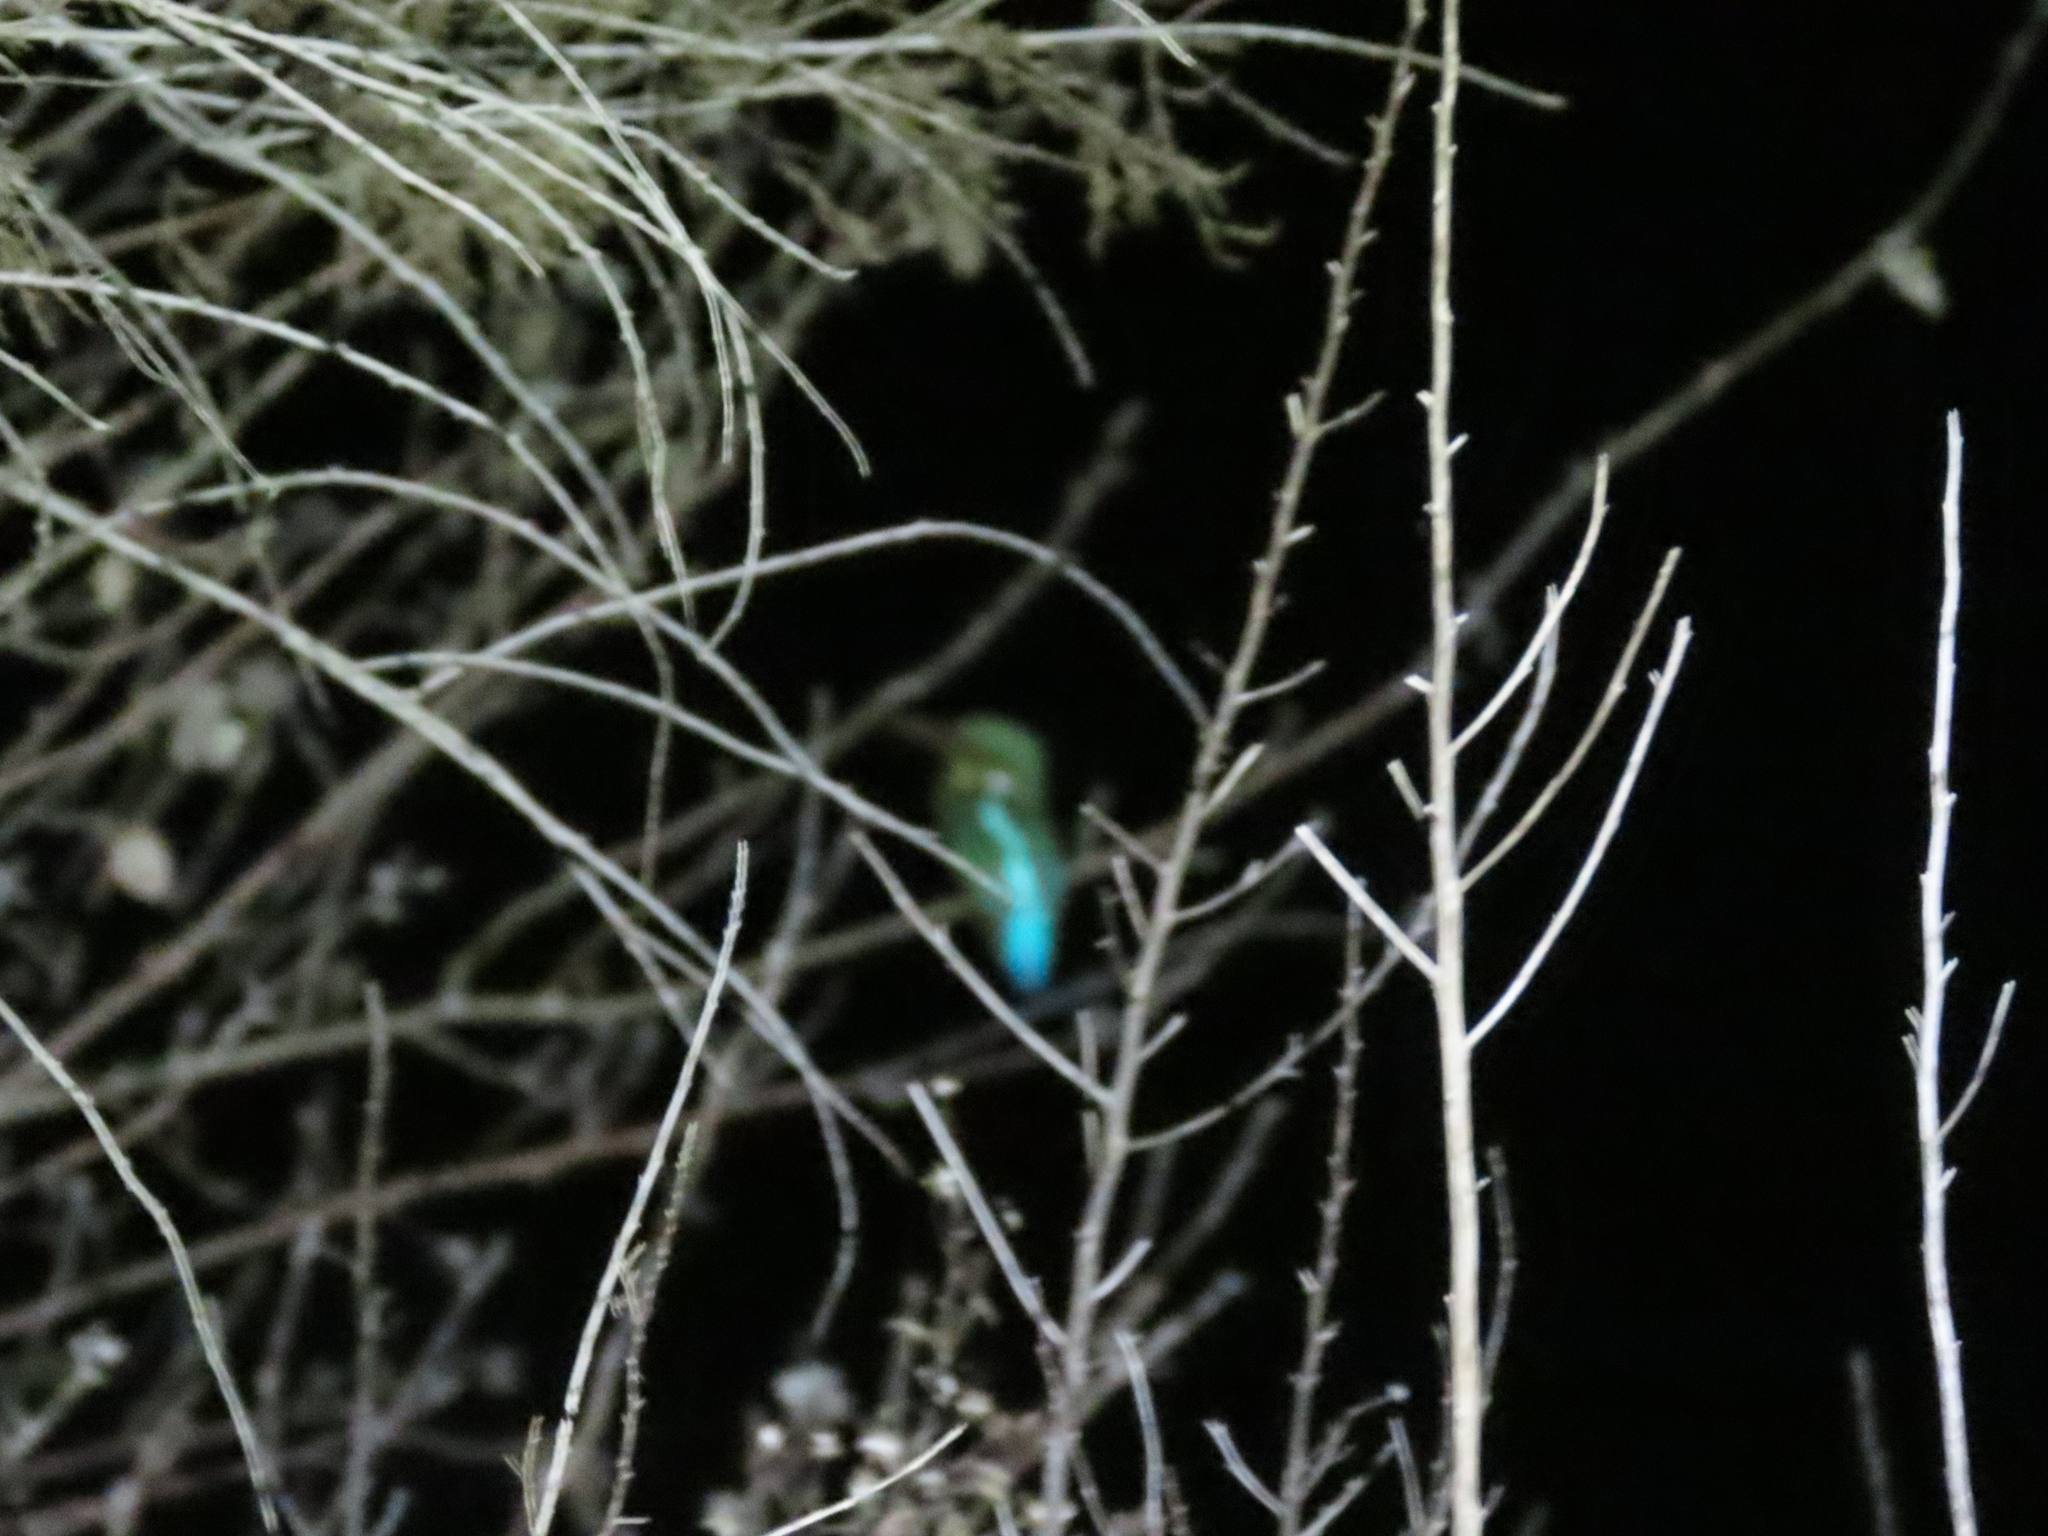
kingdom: Animalia
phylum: Chordata
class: Aves
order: Coraciiformes
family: Alcedinidae
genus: Alcedo
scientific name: Alcedo atthis
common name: Common kingfisher
